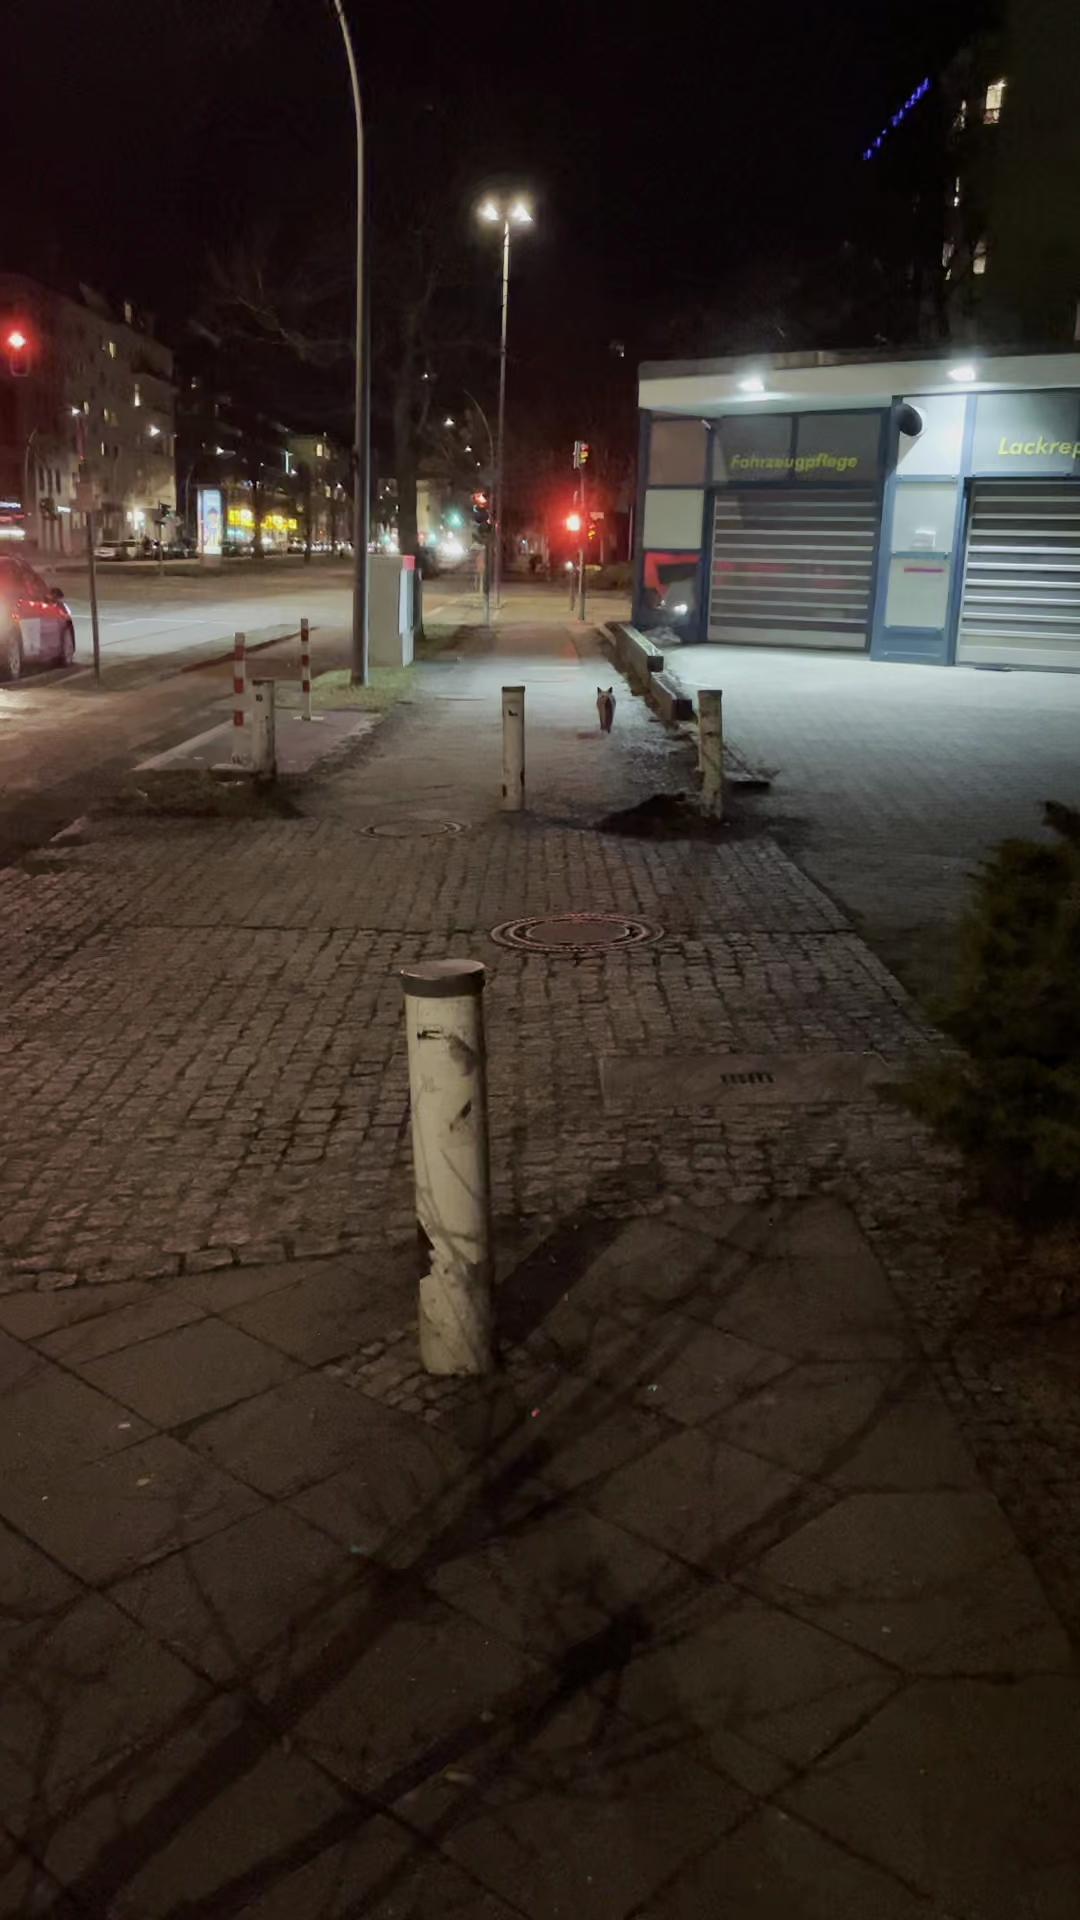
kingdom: Animalia
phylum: Chordata
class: Mammalia
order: Carnivora
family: Canidae
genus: Vulpes
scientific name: Vulpes vulpes
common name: Red fox
